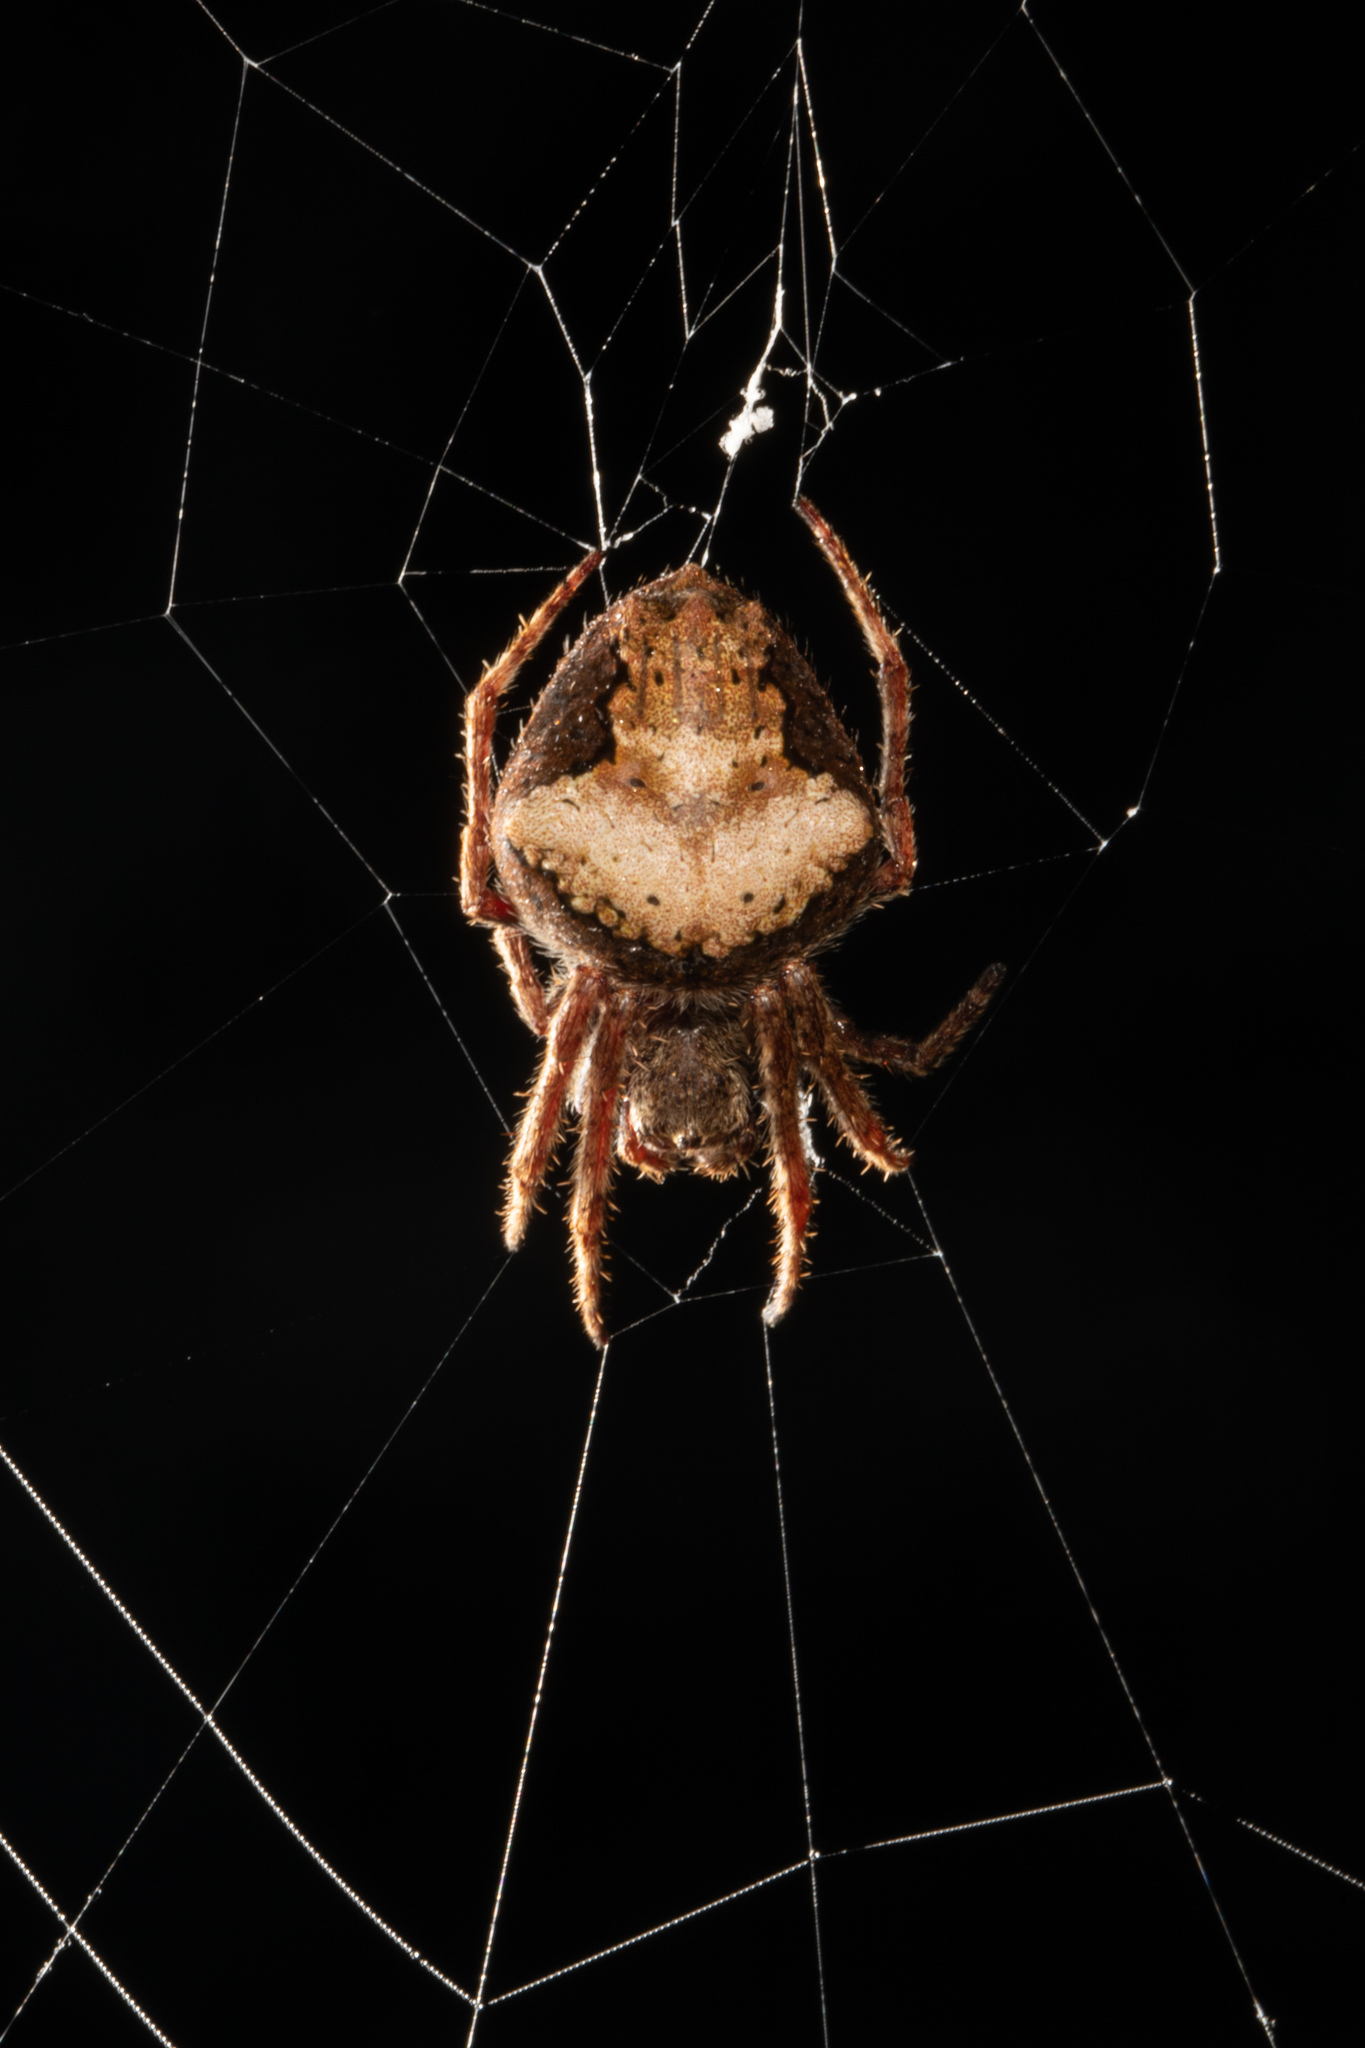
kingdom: Animalia
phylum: Arthropoda
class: Arachnida
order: Araneae
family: Araneidae
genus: Eriophora
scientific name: Eriophora pustulosa
